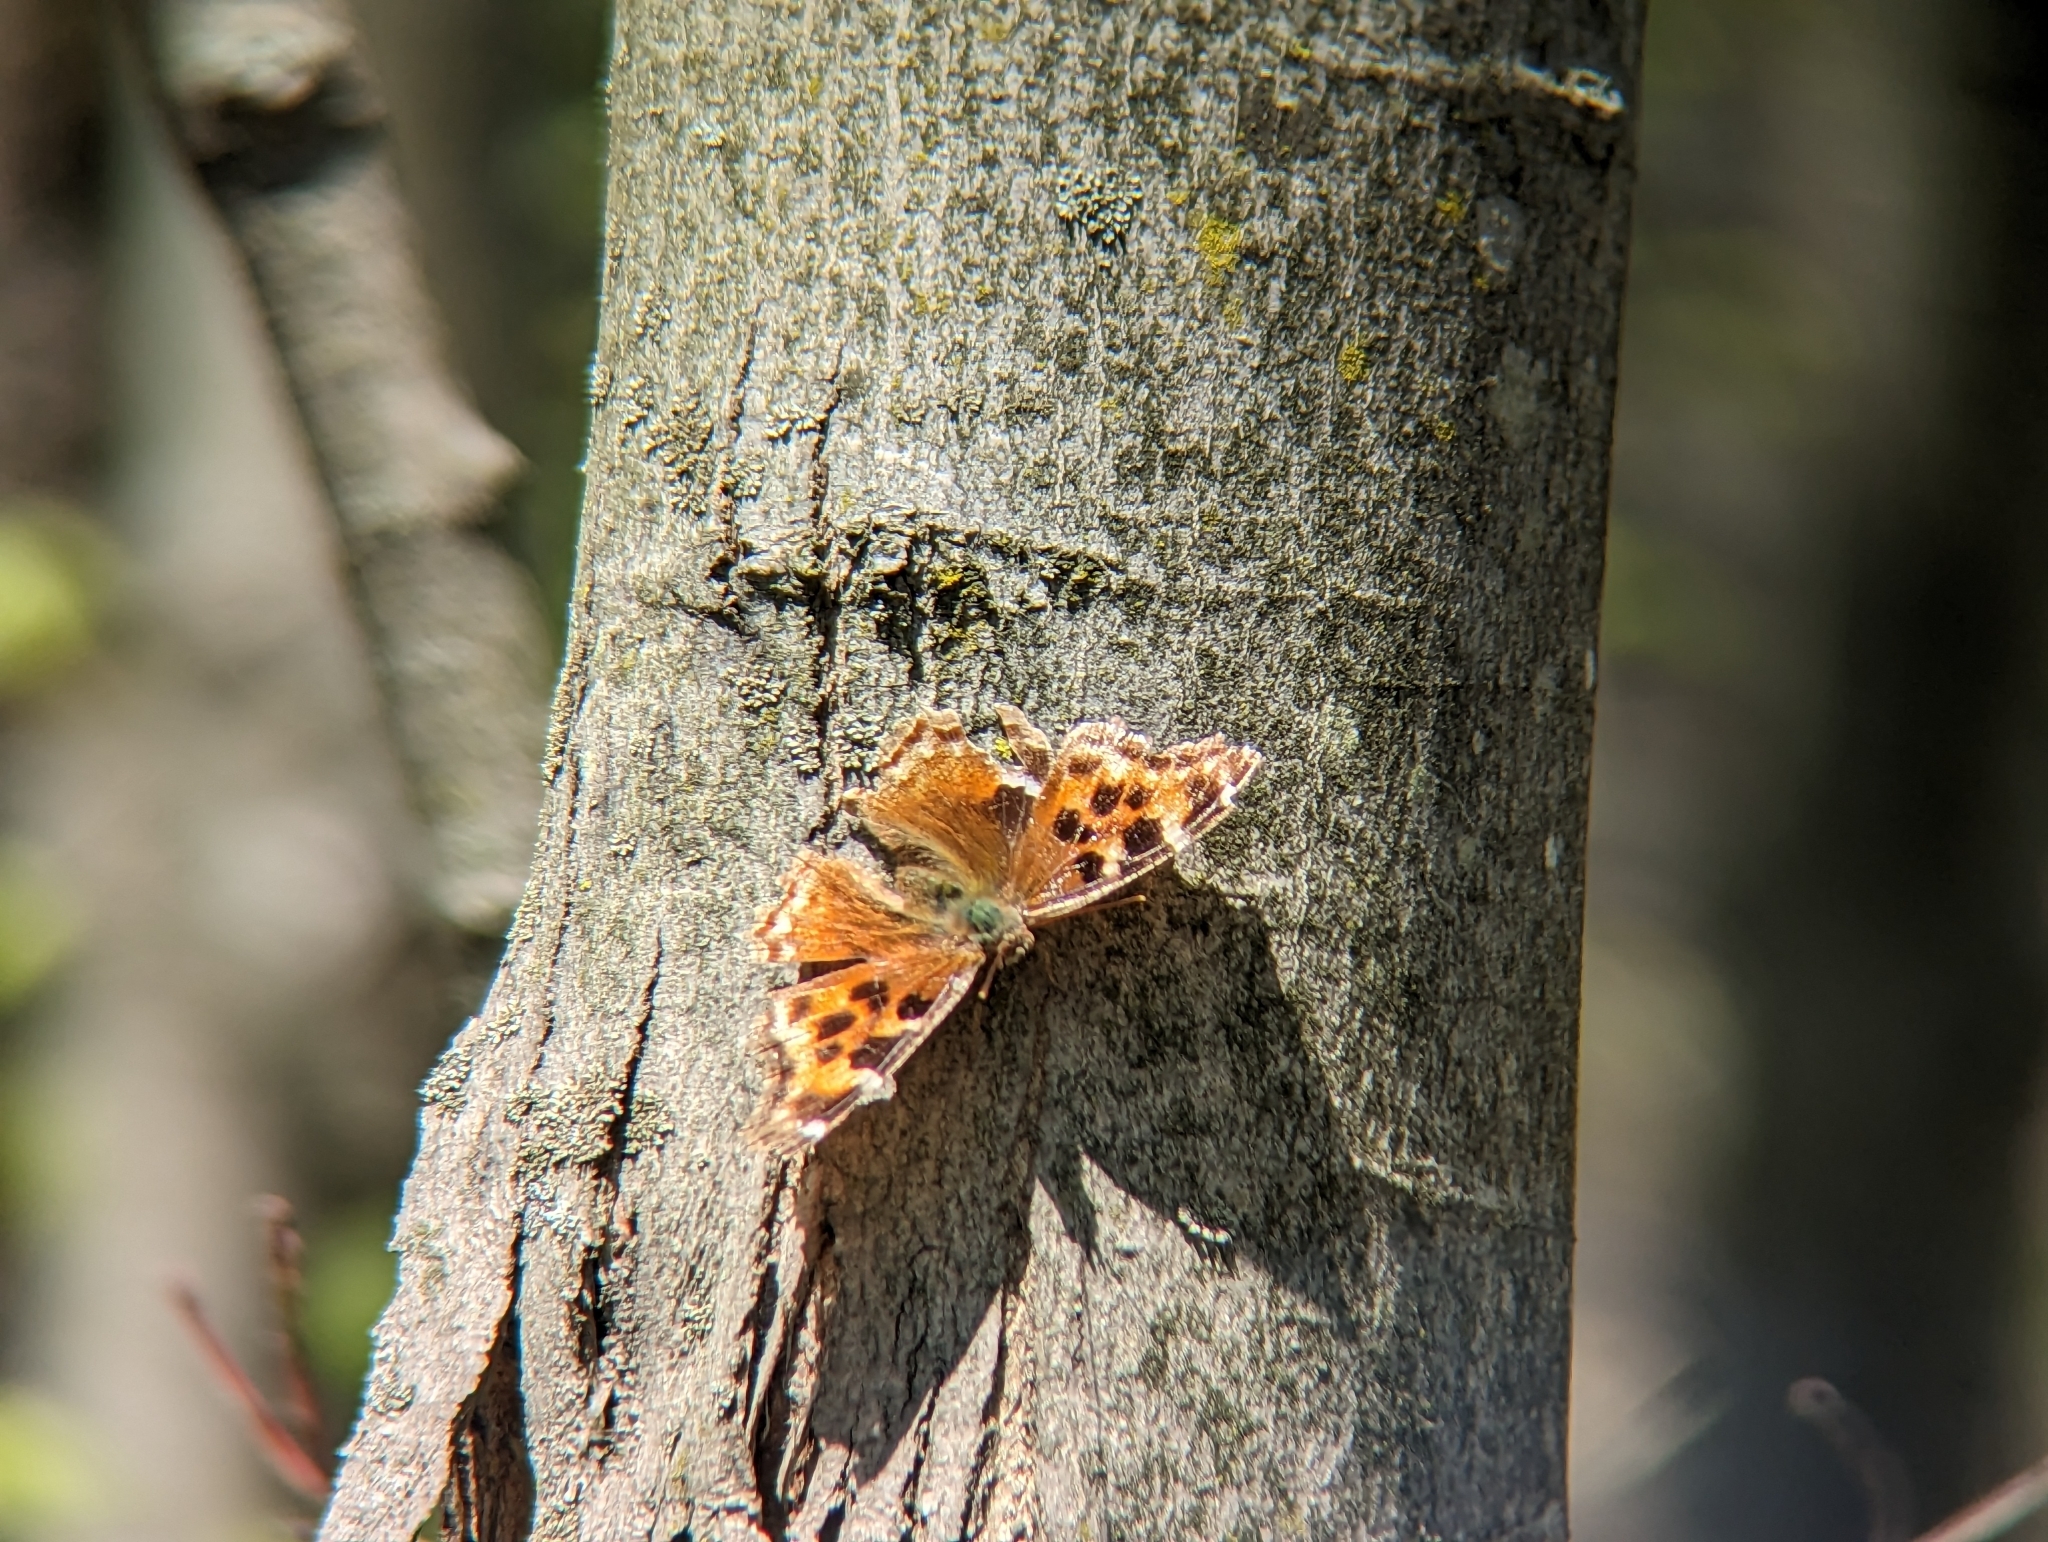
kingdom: Animalia
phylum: Arthropoda
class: Insecta
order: Lepidoptera
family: Nymphalidae
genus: Polygonia
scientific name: Polygonia vaualbum
